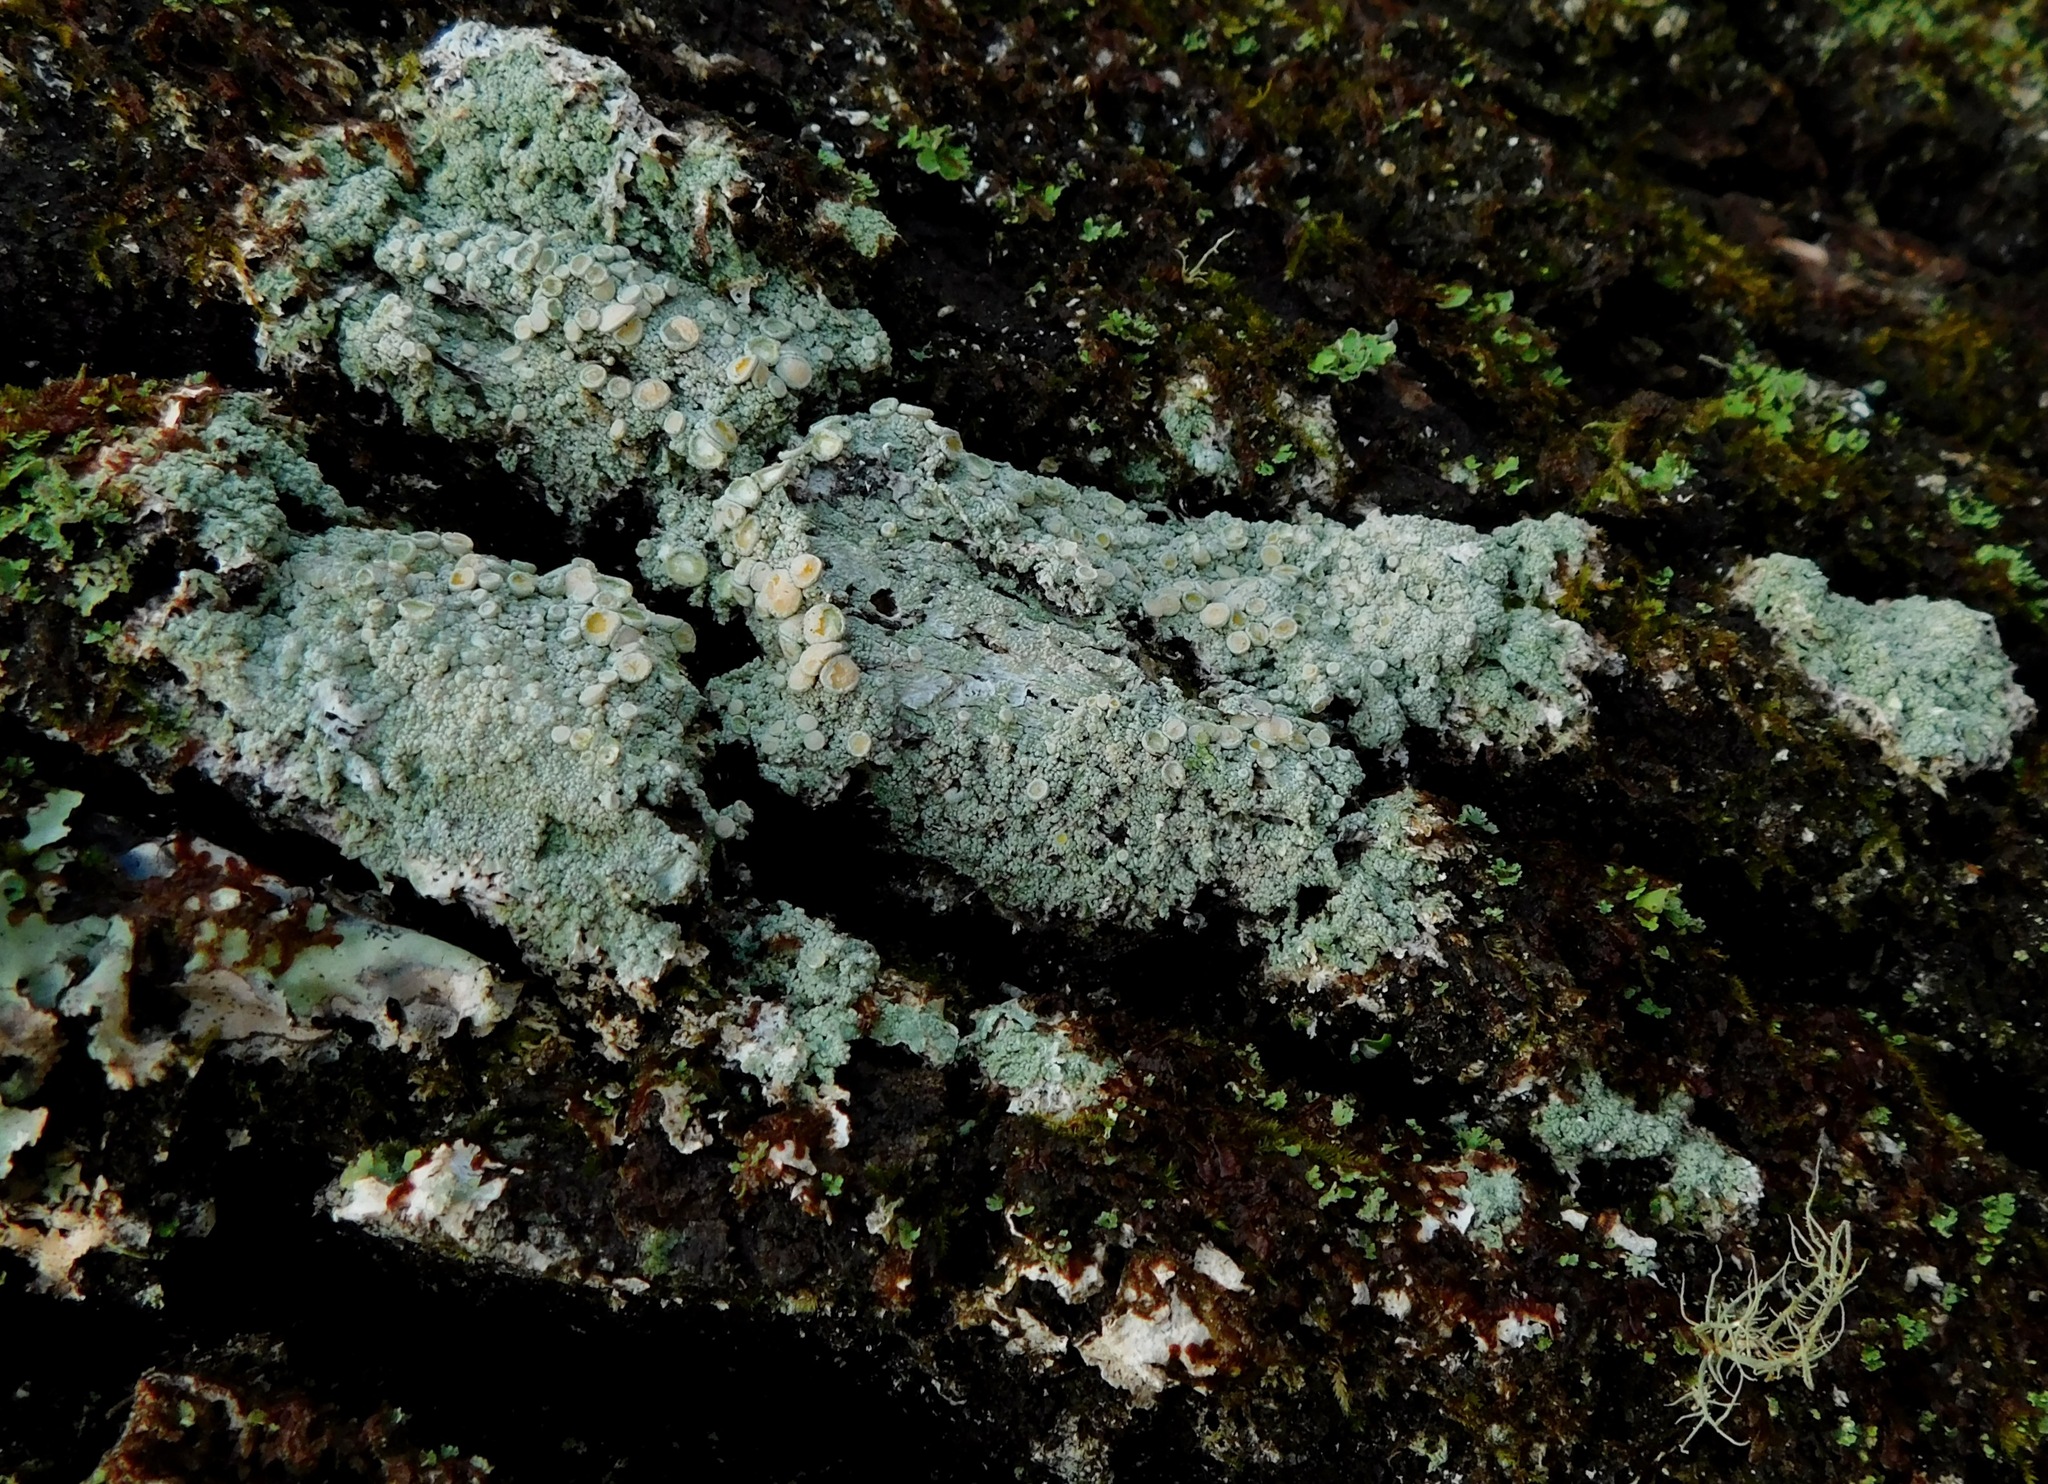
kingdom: Fungi
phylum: Ascomycota
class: Lecanoromycetes
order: Pertusariales
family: Ochrolechiaceae
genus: Ochrolechia
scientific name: Ochrolechia africana
